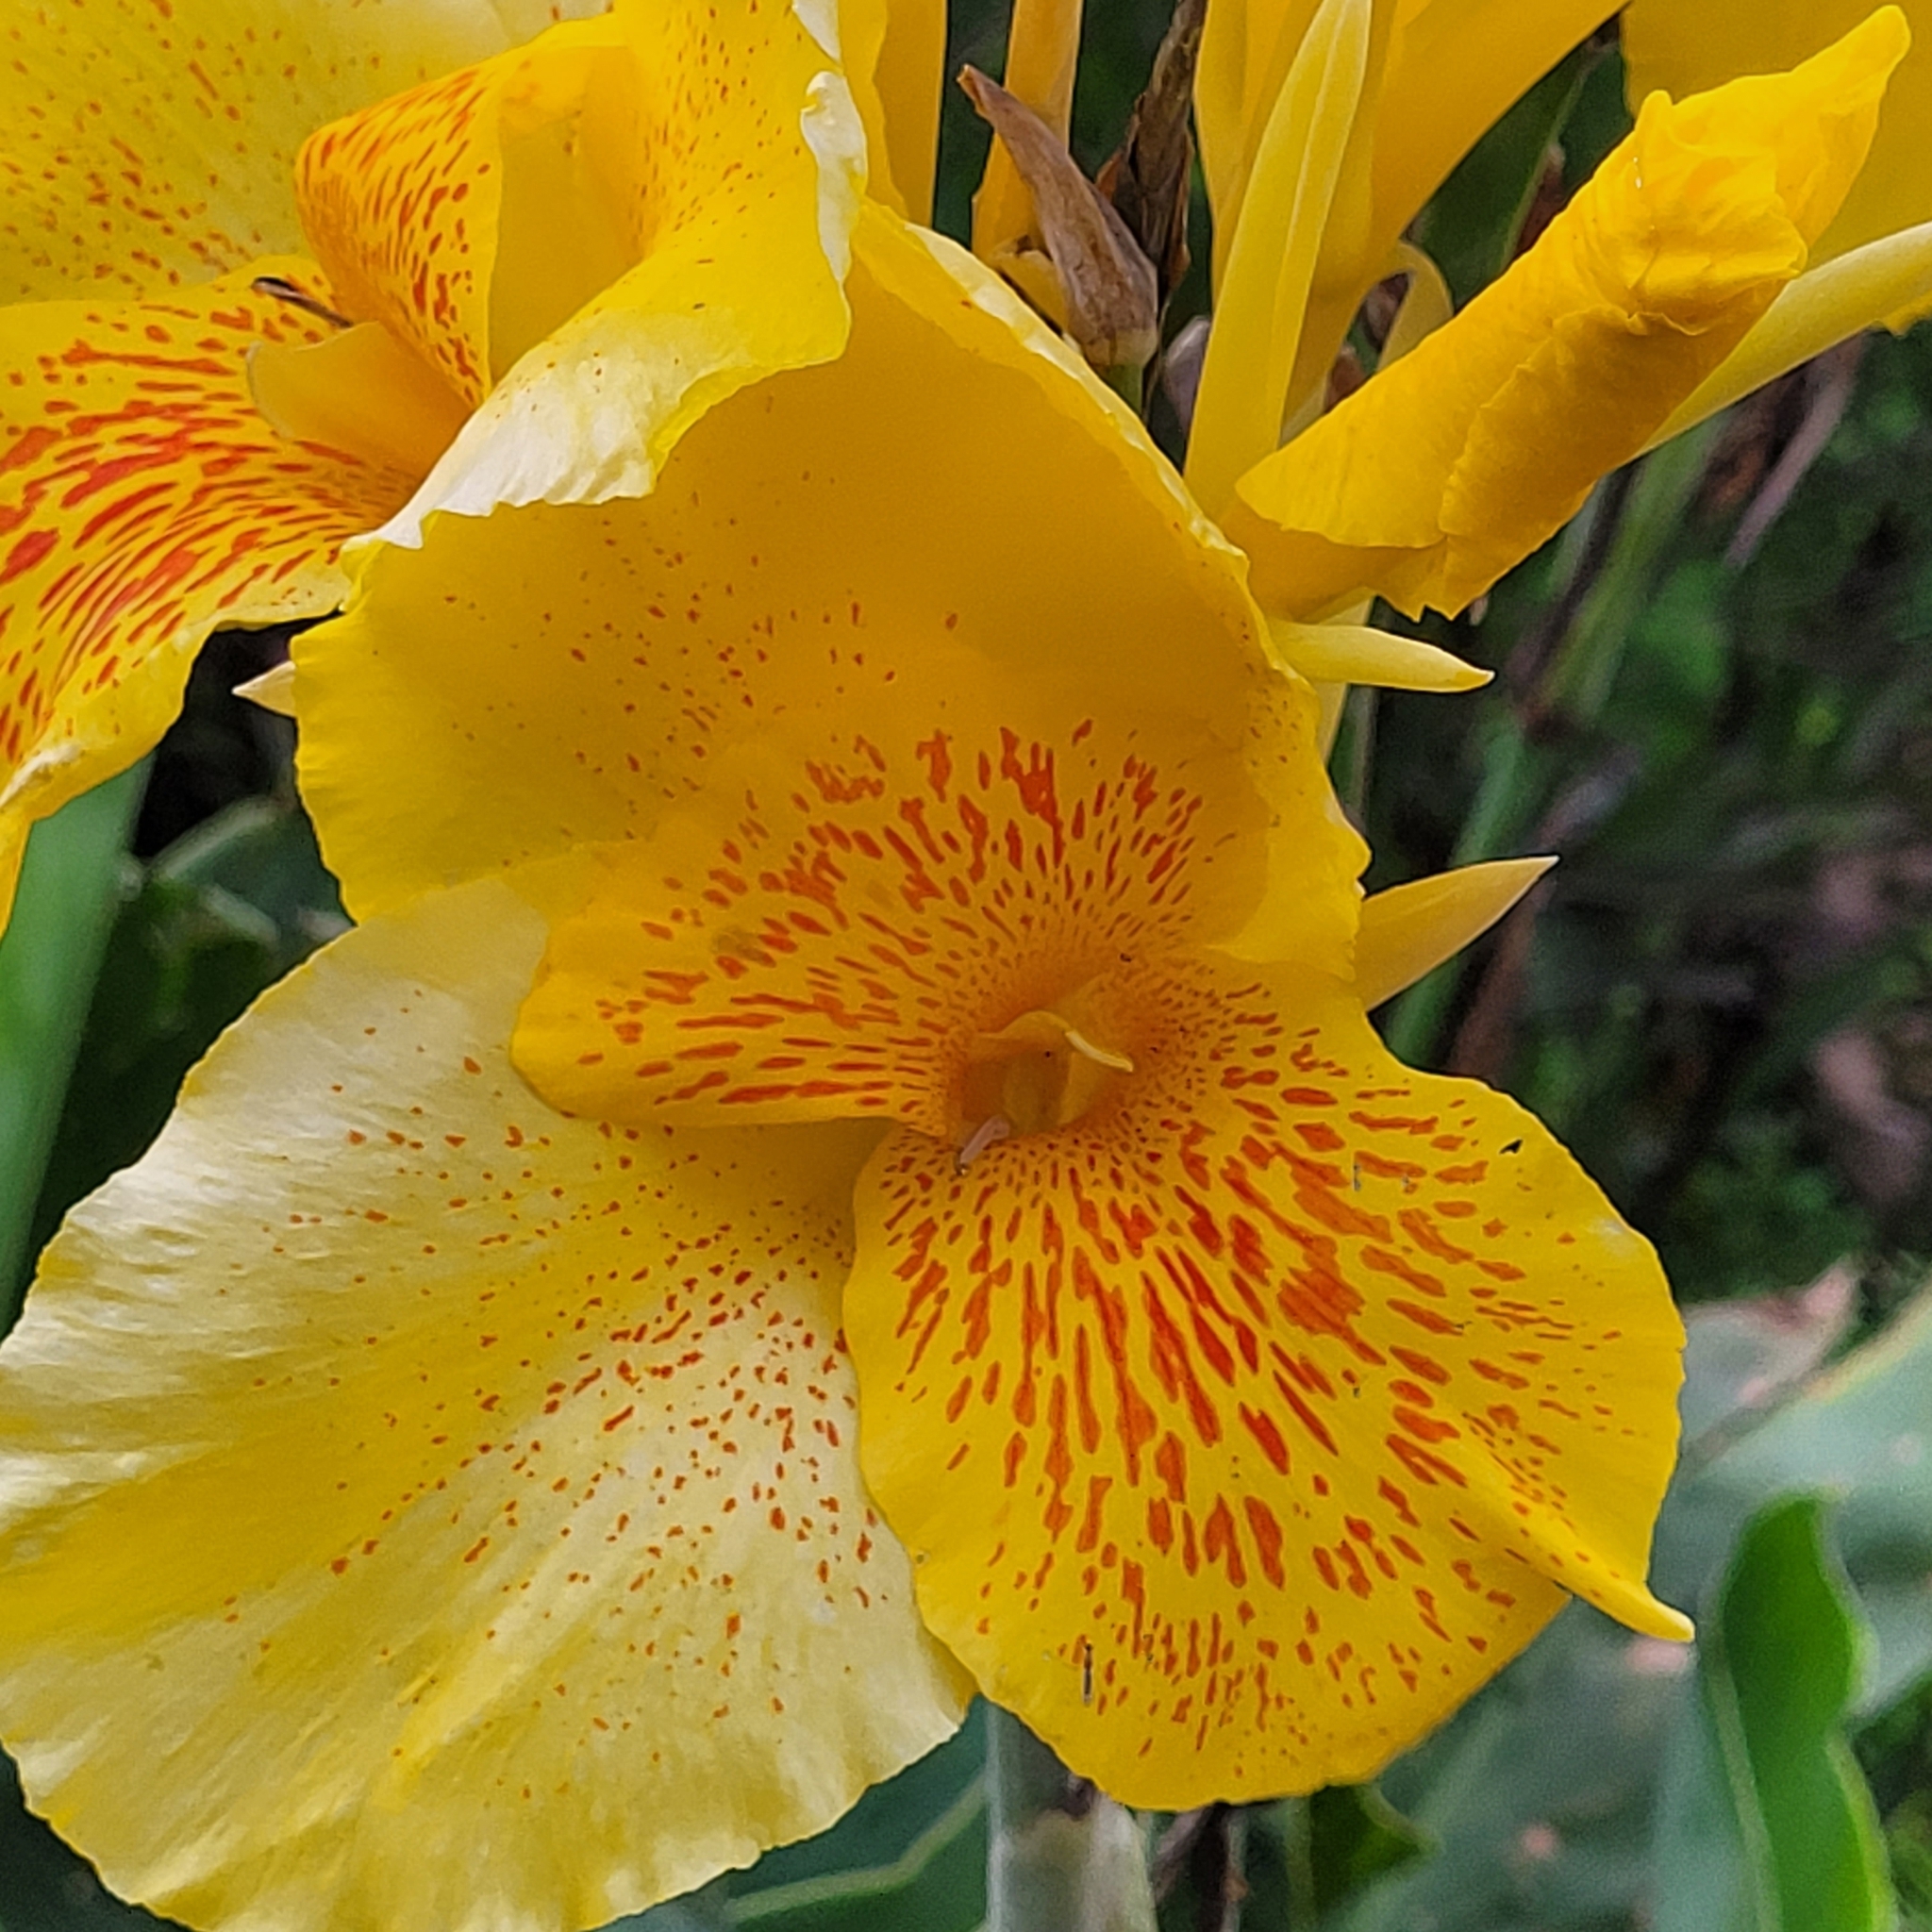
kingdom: Plantae
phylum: Tracheophyta
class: Liliopsida
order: Zingiberales
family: Cannaceae
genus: Canna
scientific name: Canna hybrida
